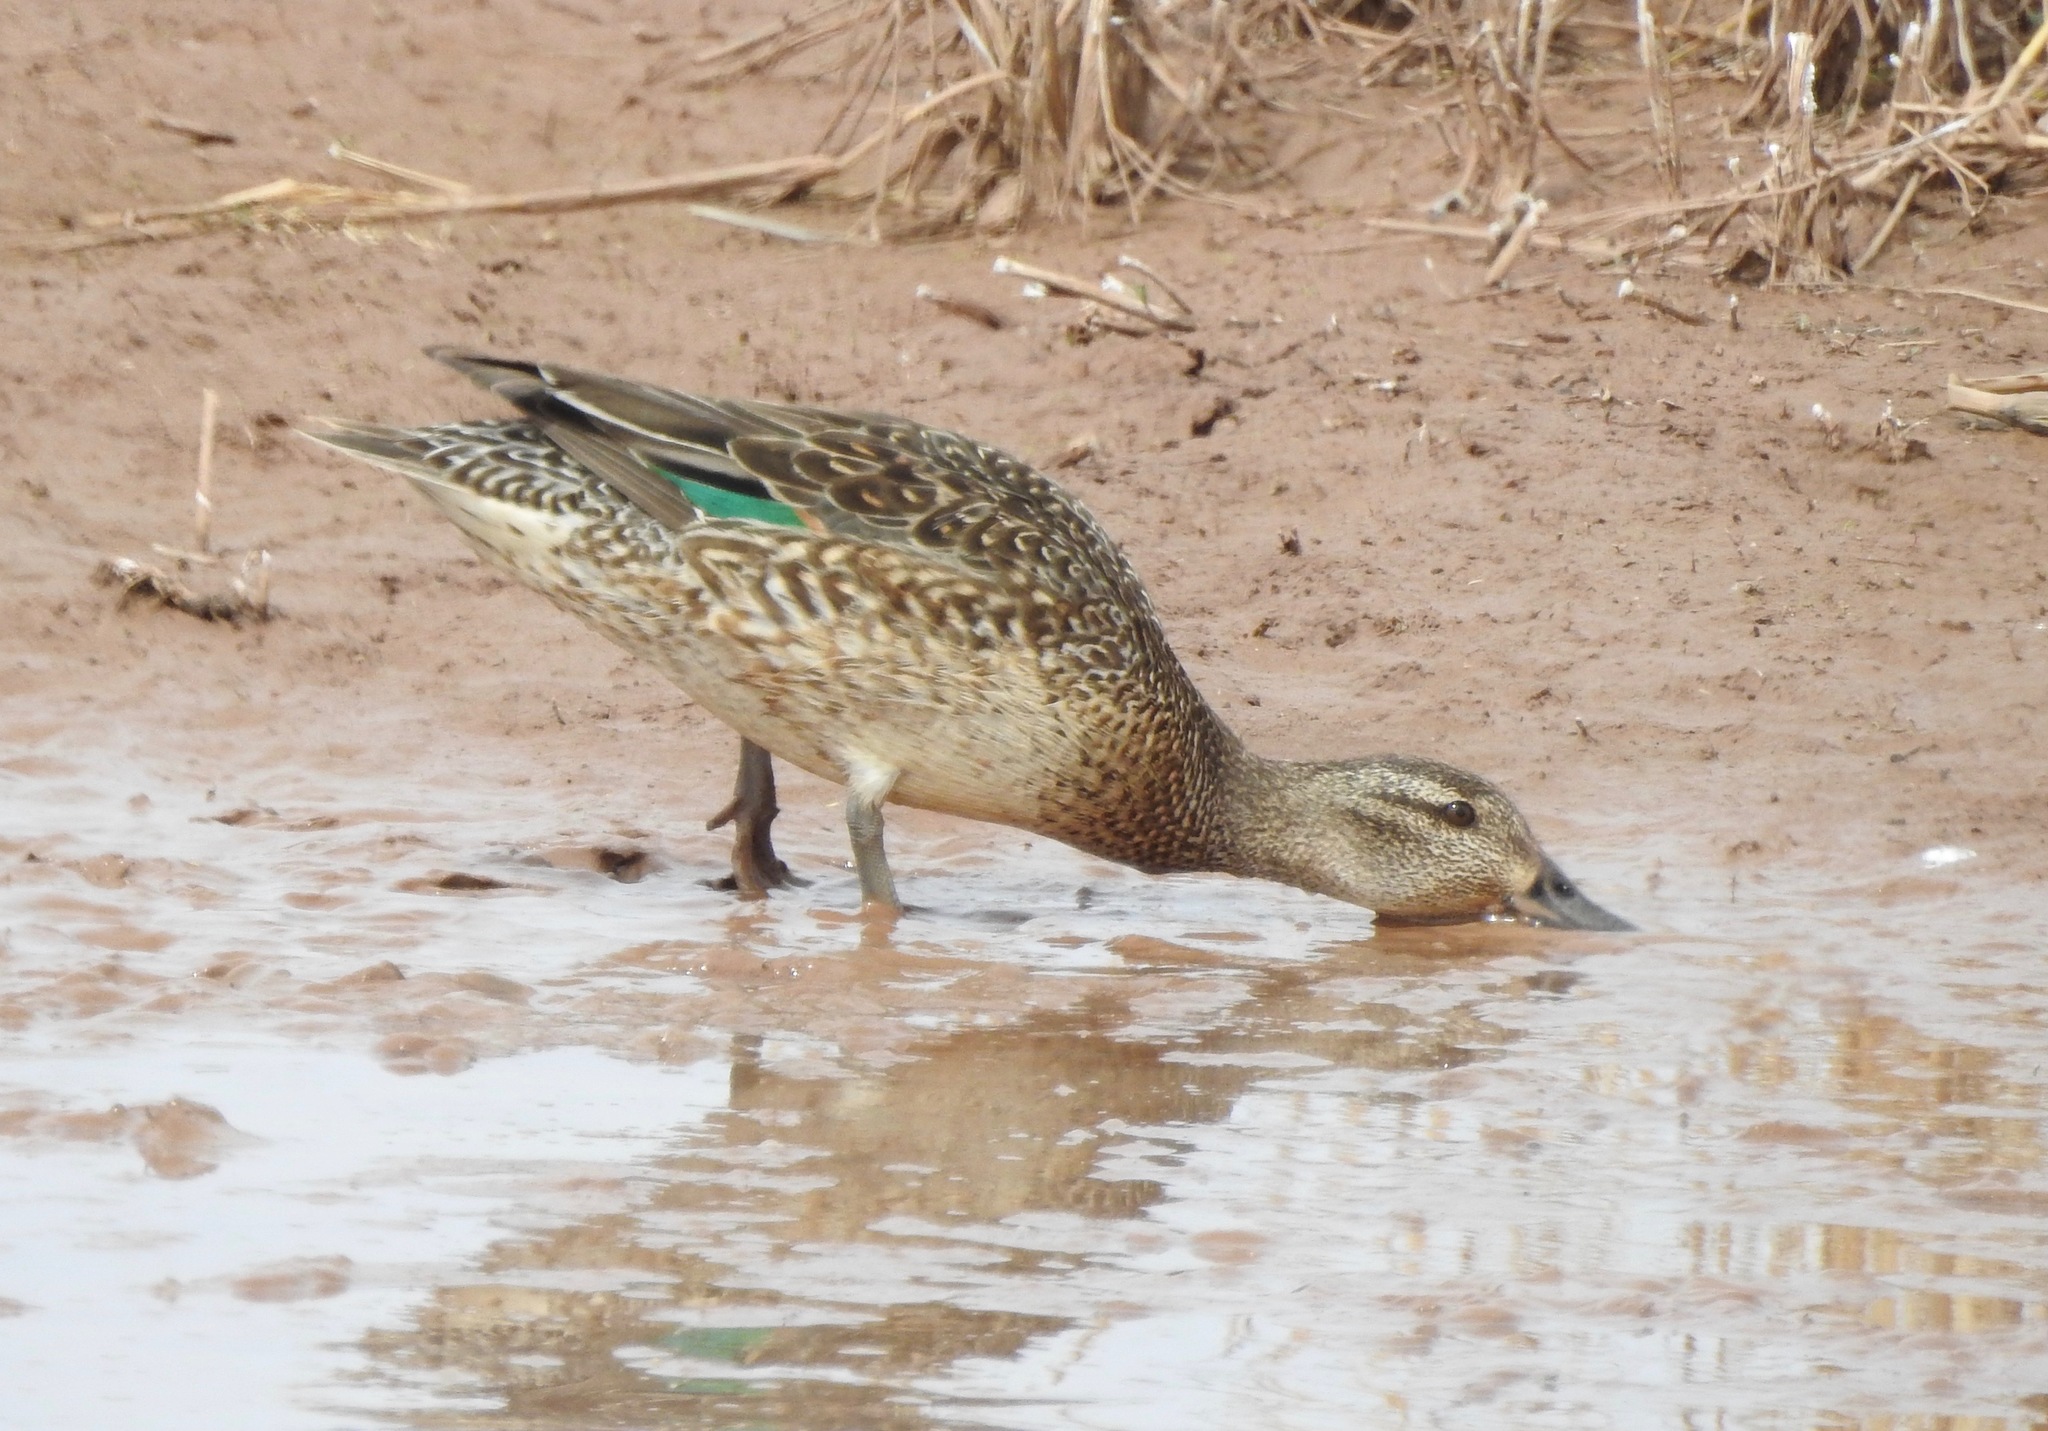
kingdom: Animalia
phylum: Chordata
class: Aves
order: Anseriformes
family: Anatidae
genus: Anas
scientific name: Anas crecca
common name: Eurasian teal
